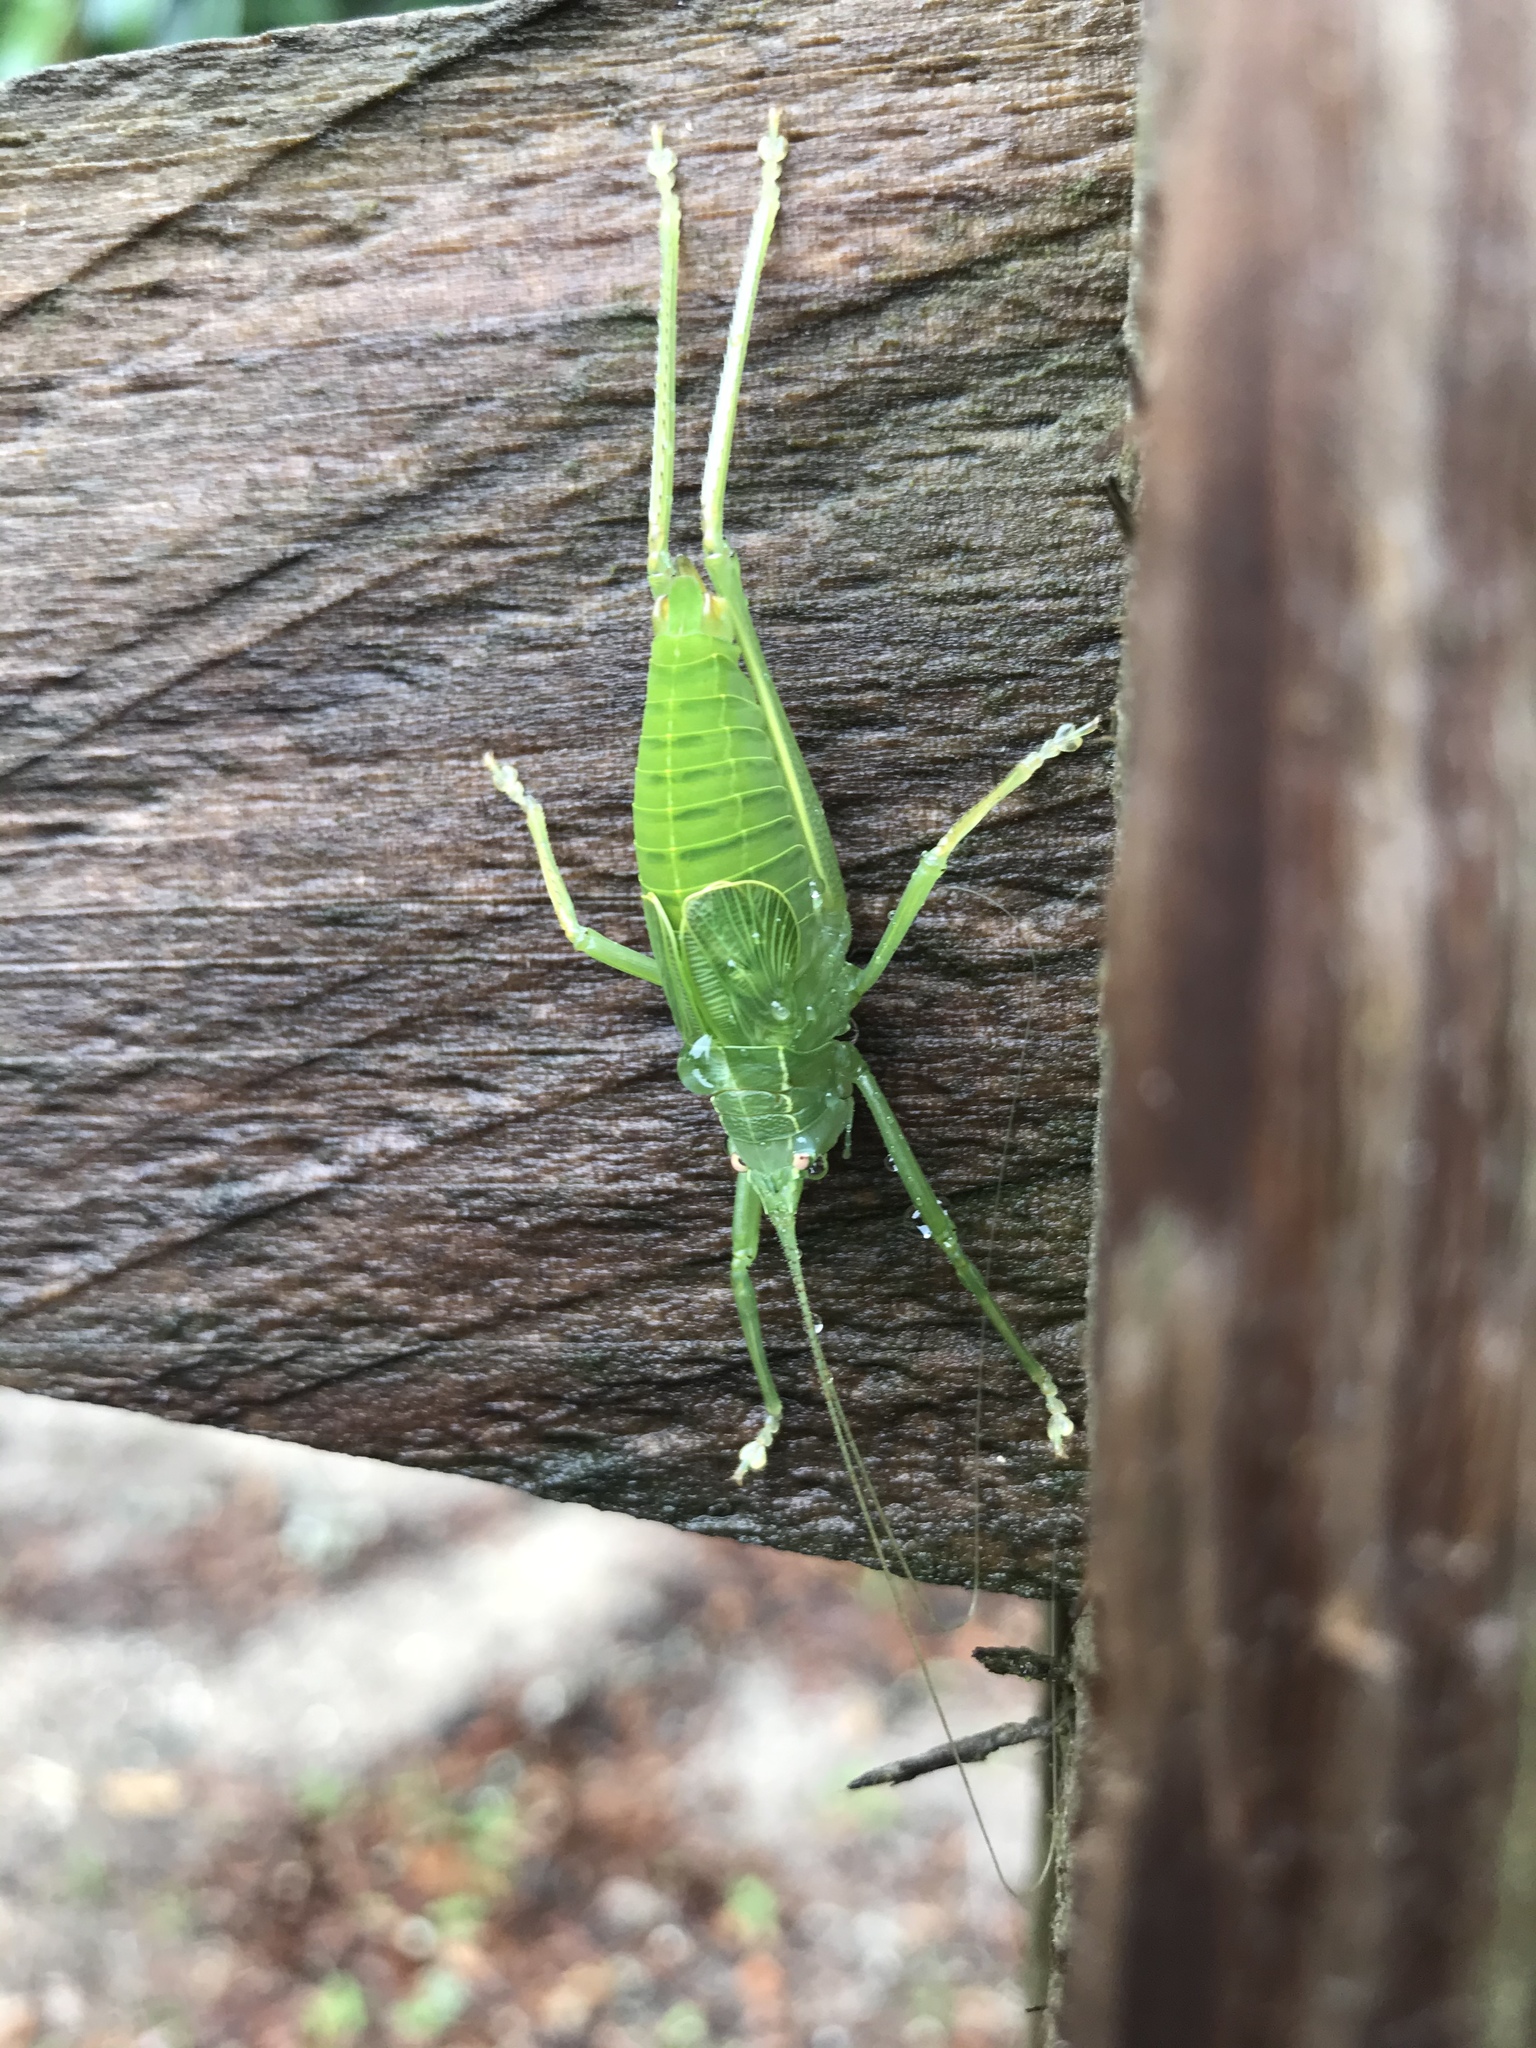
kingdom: Animalia
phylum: Arthropoda
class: Insecta
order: Orthoptera
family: Tettigoniidae
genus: Pterophylla
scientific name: Pterophylla camellifolia
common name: Common true katydid
